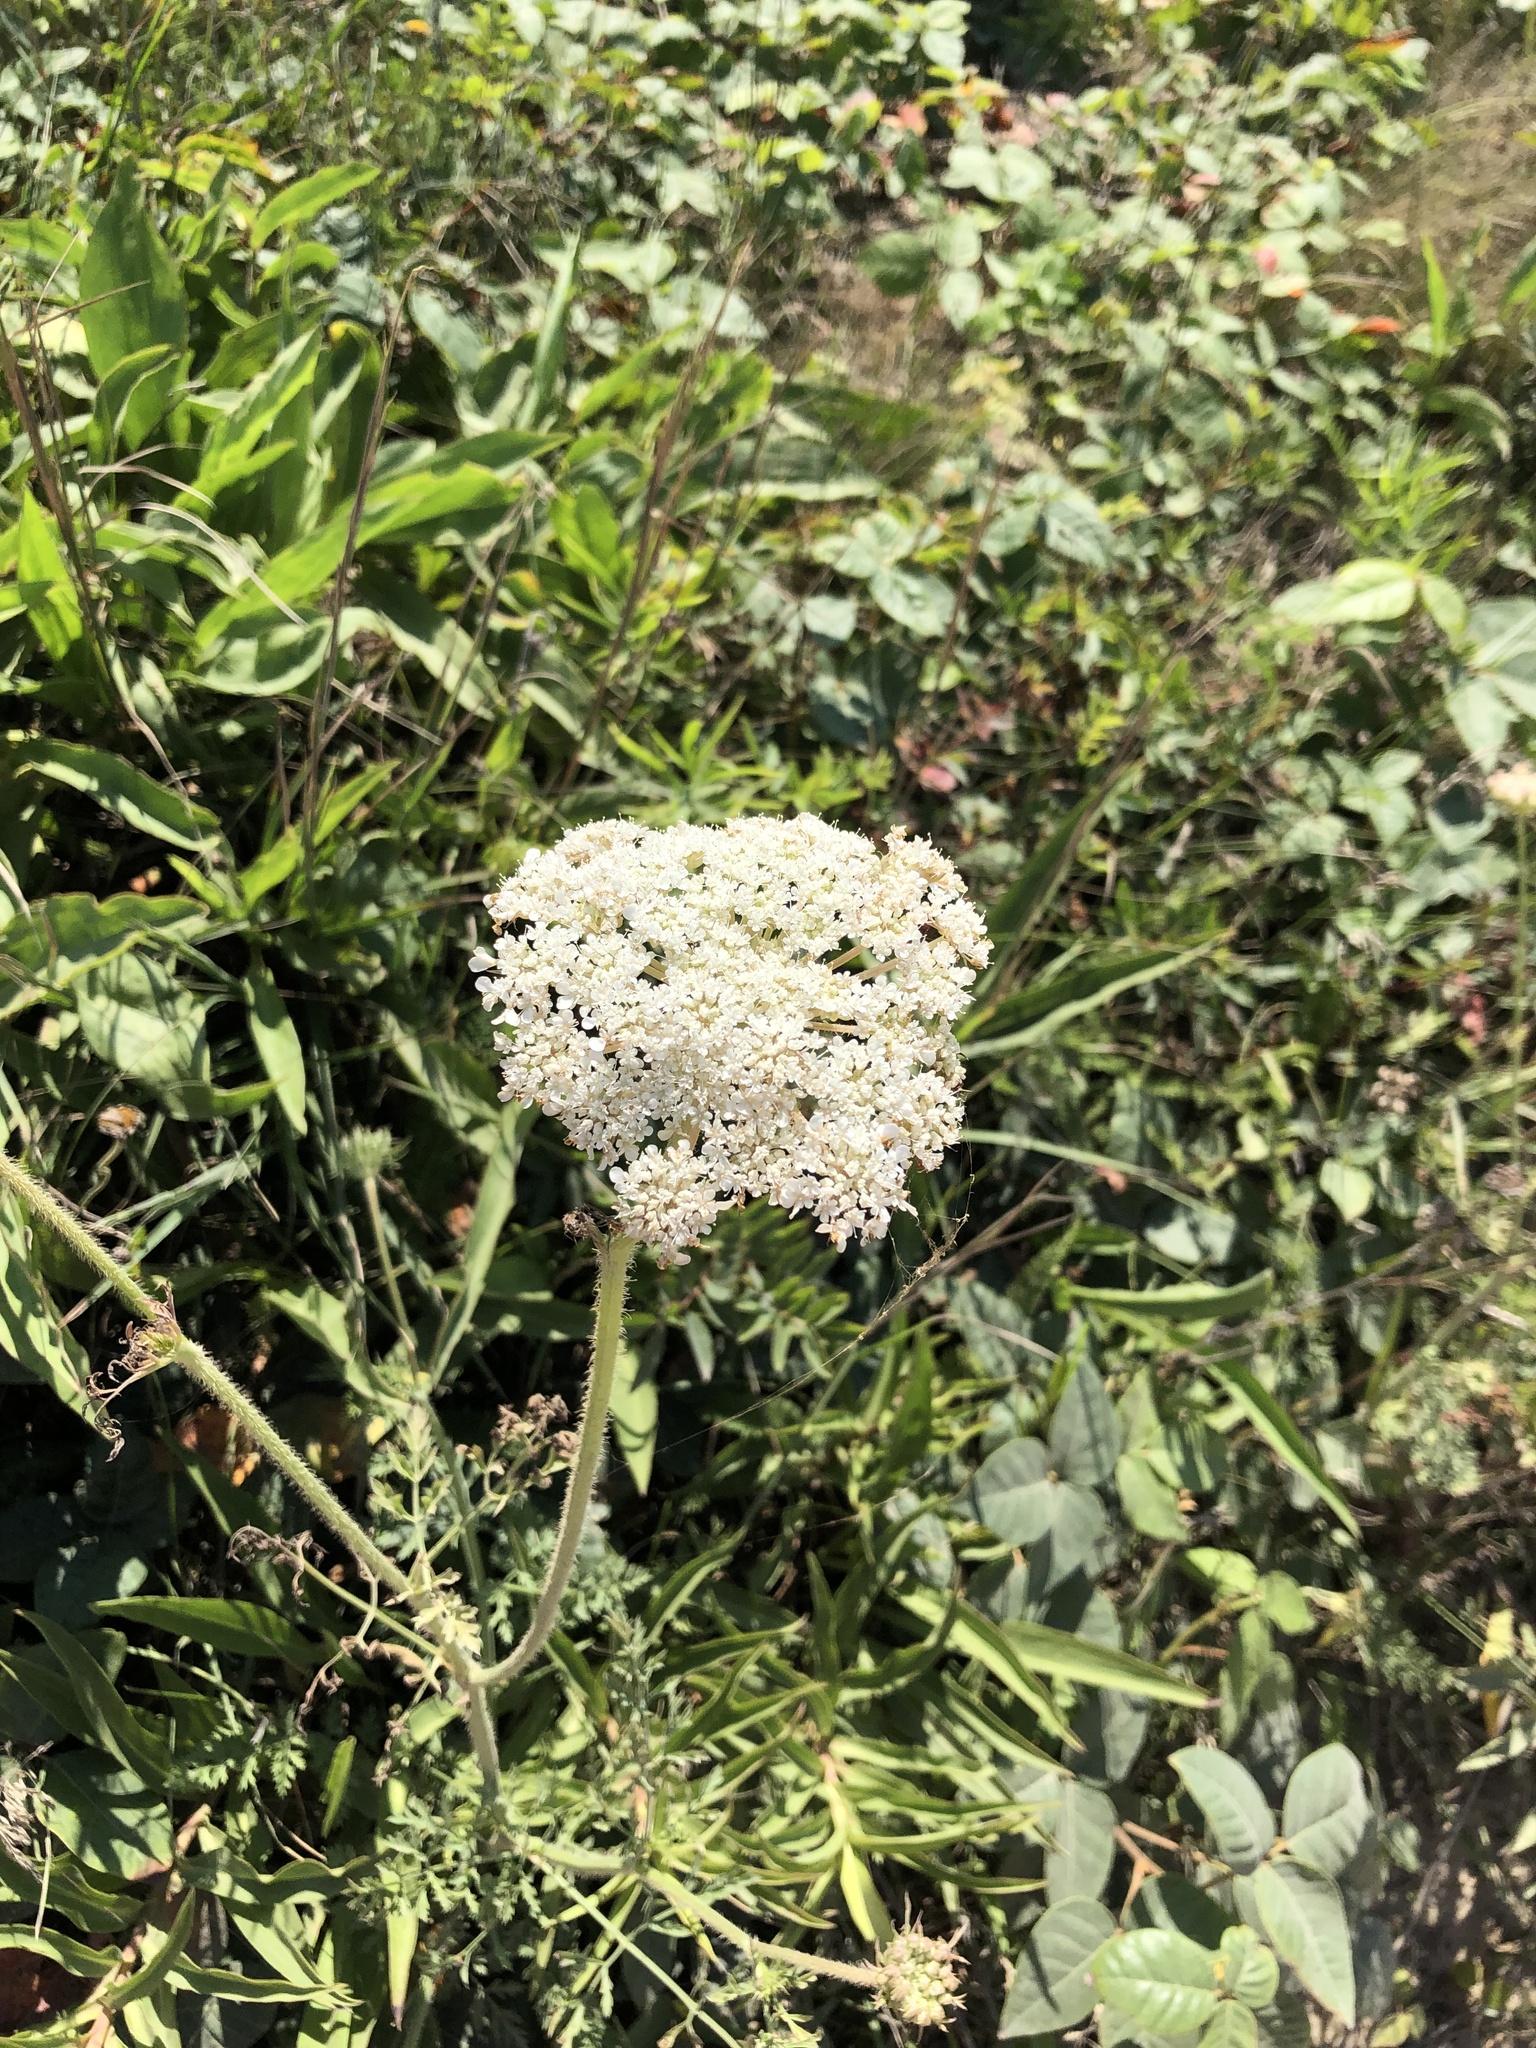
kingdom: Plantae
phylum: Tracheophyta
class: Magnoliopsida
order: Apiales
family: Apiaceae
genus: Daucus
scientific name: Daucus carota
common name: Wild carrot
